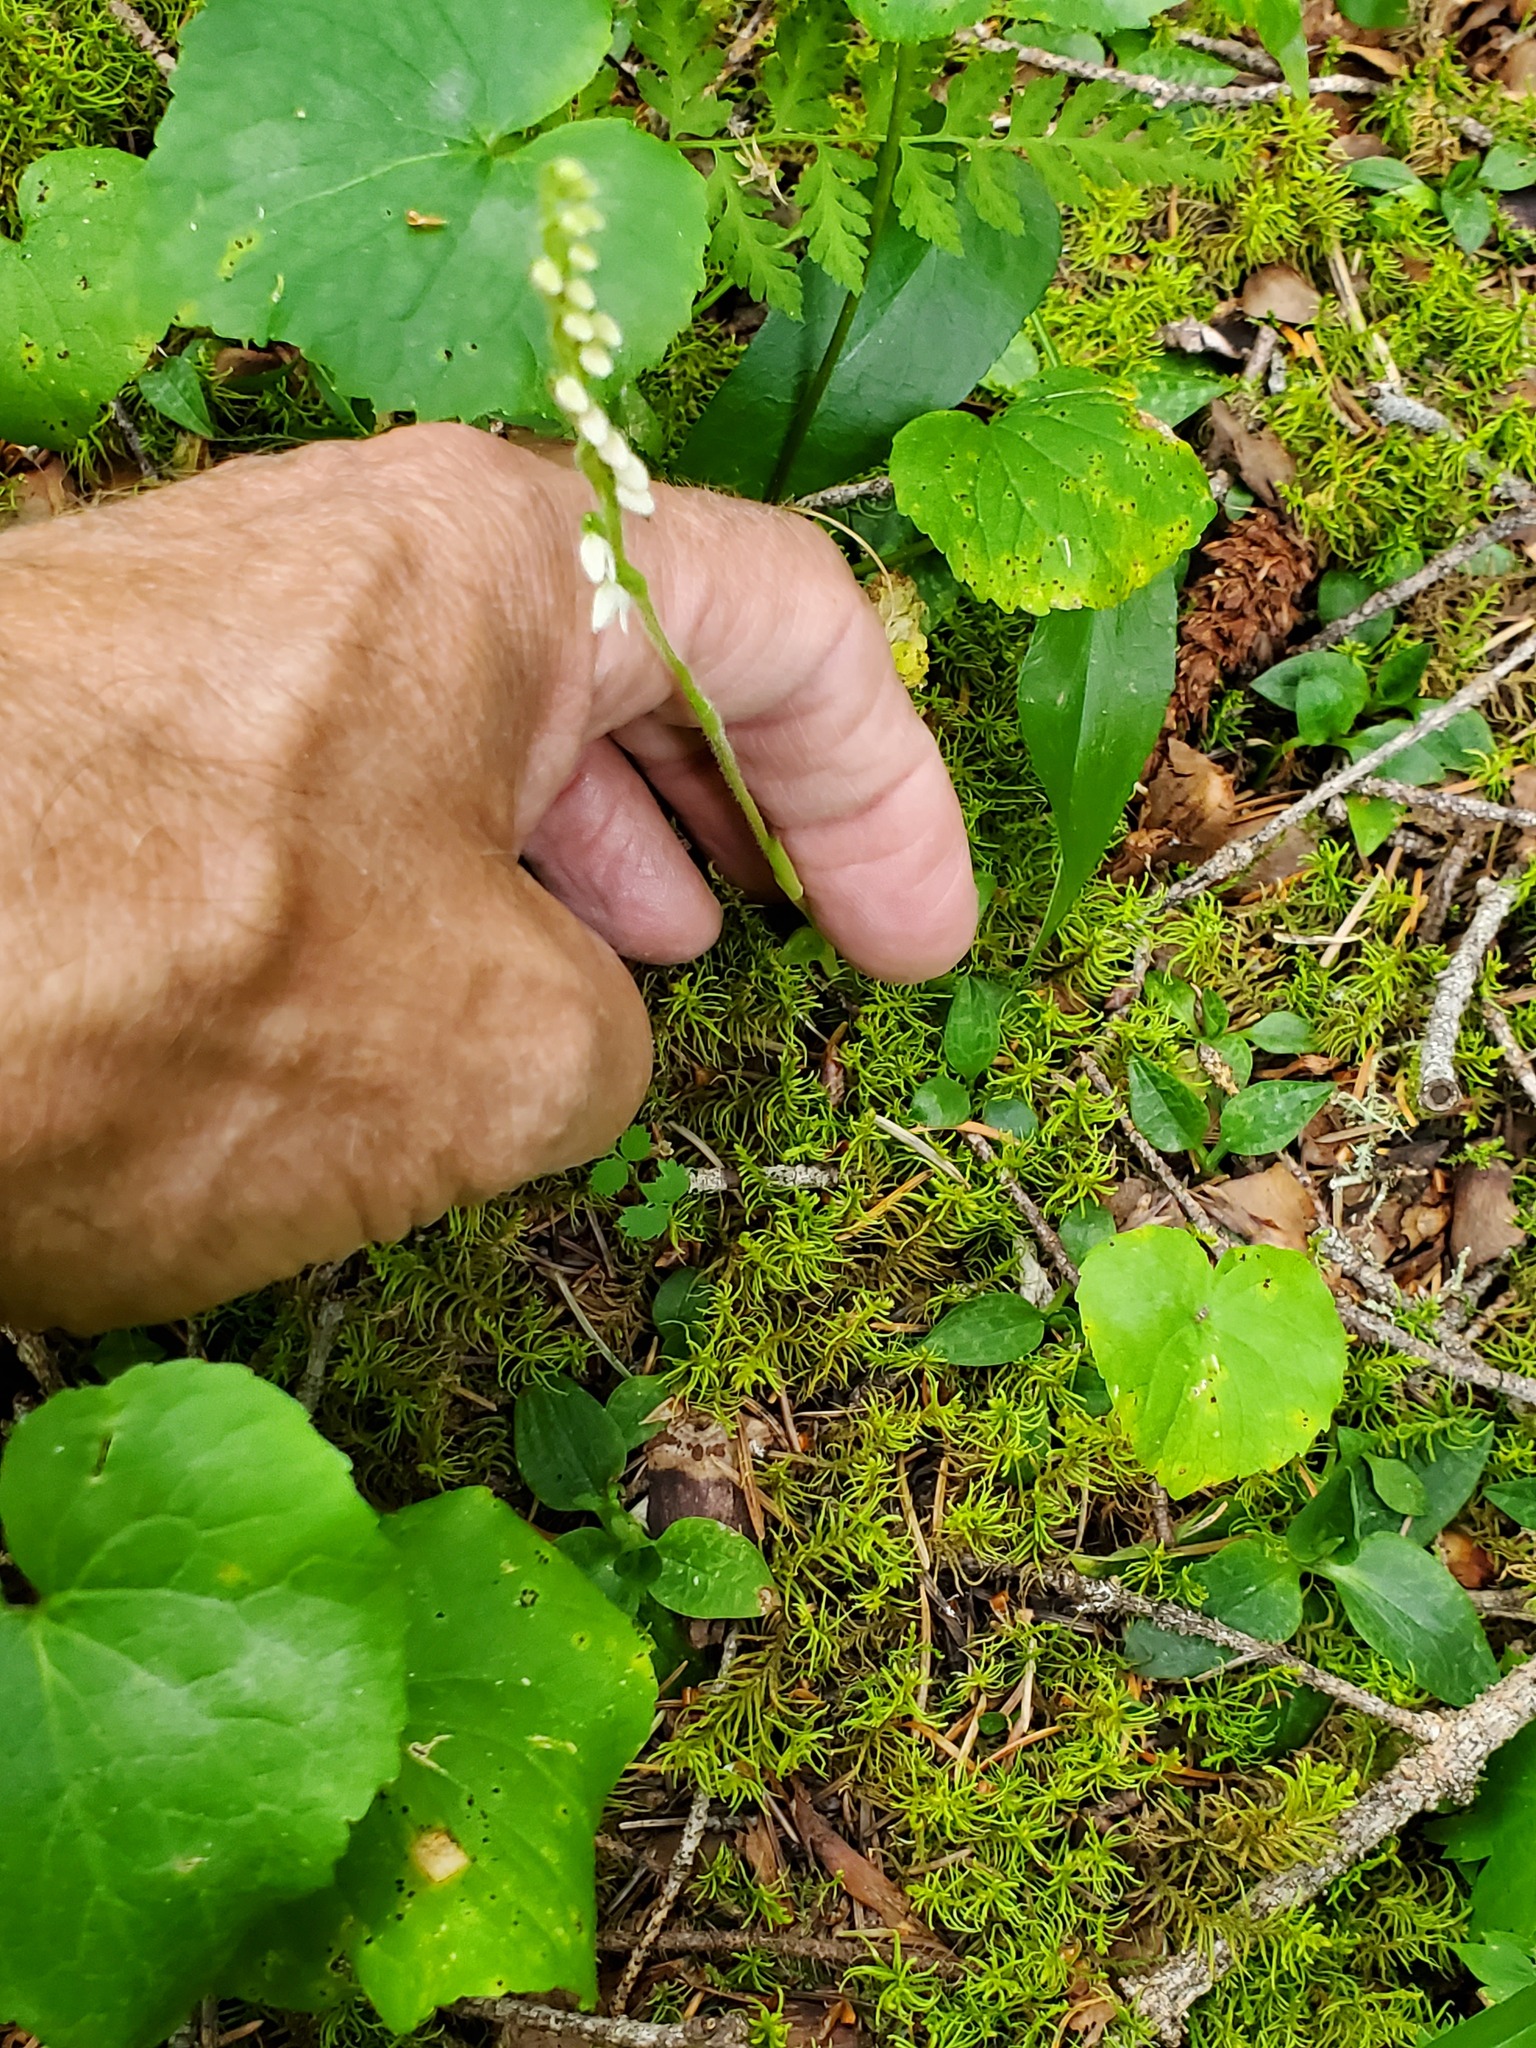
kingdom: Plantae
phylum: Tracheophyta
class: Liliopsida
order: Asparagales
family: Orchidaceae
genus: Goodyera
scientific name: Goodyera repens
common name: Creeping lady's-tresses
